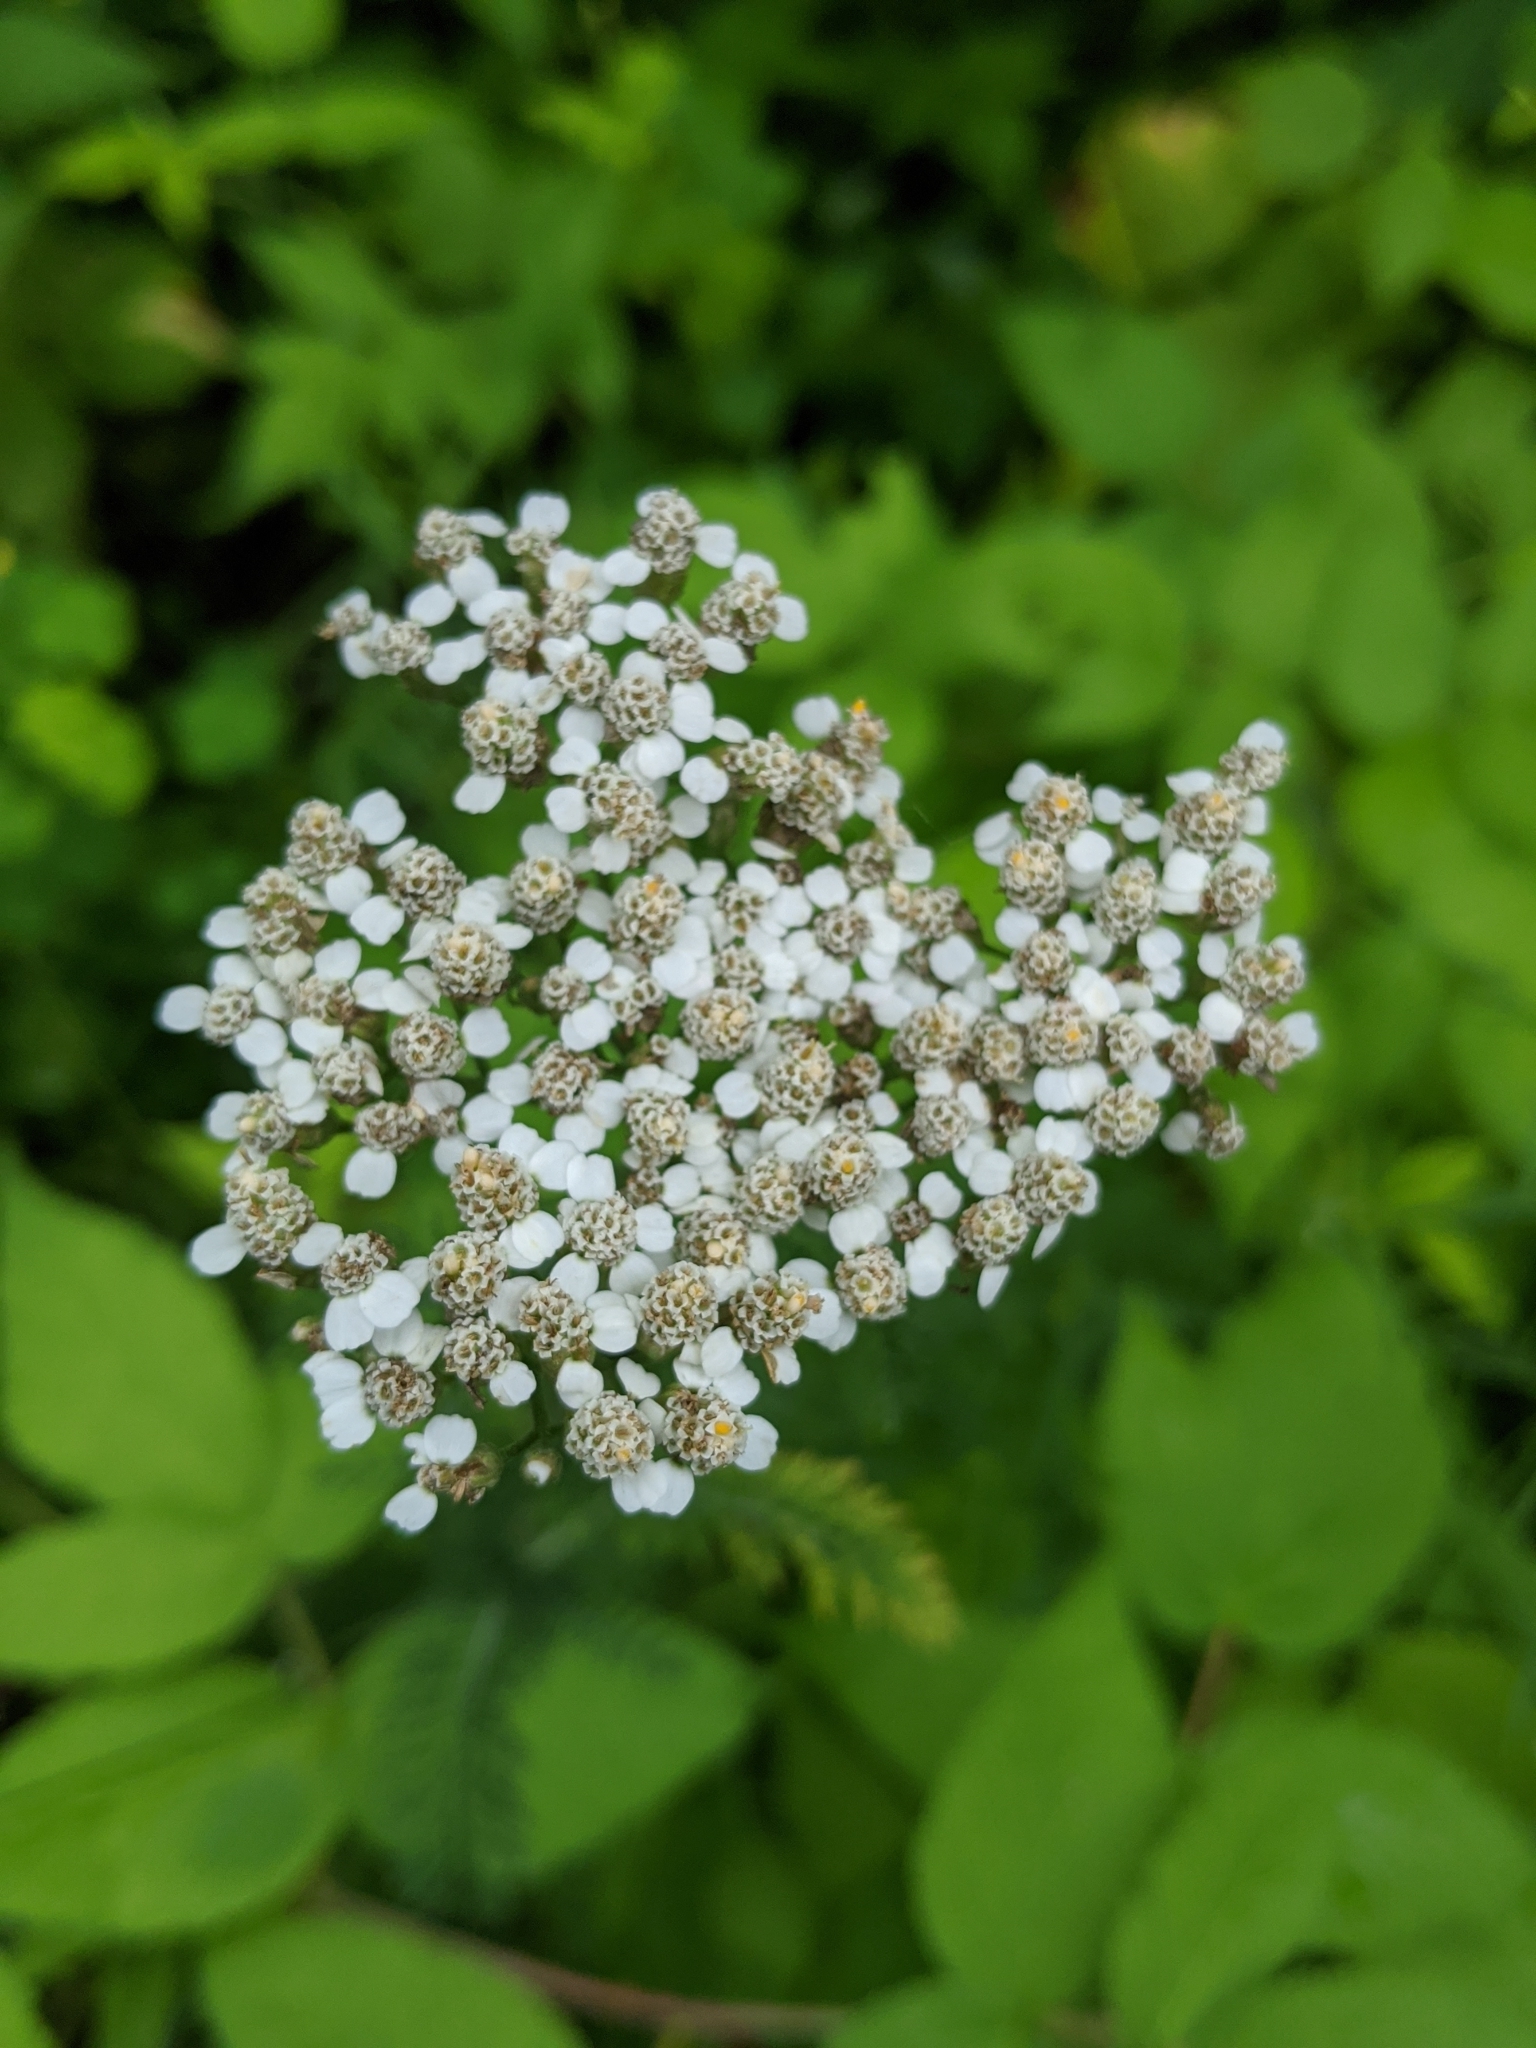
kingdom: Plantae
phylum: Tracheophyta
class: Magnoliopsida
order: Asterales
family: Asteraceae
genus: Achillea
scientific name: Achillea millefolium
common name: Yarrow
